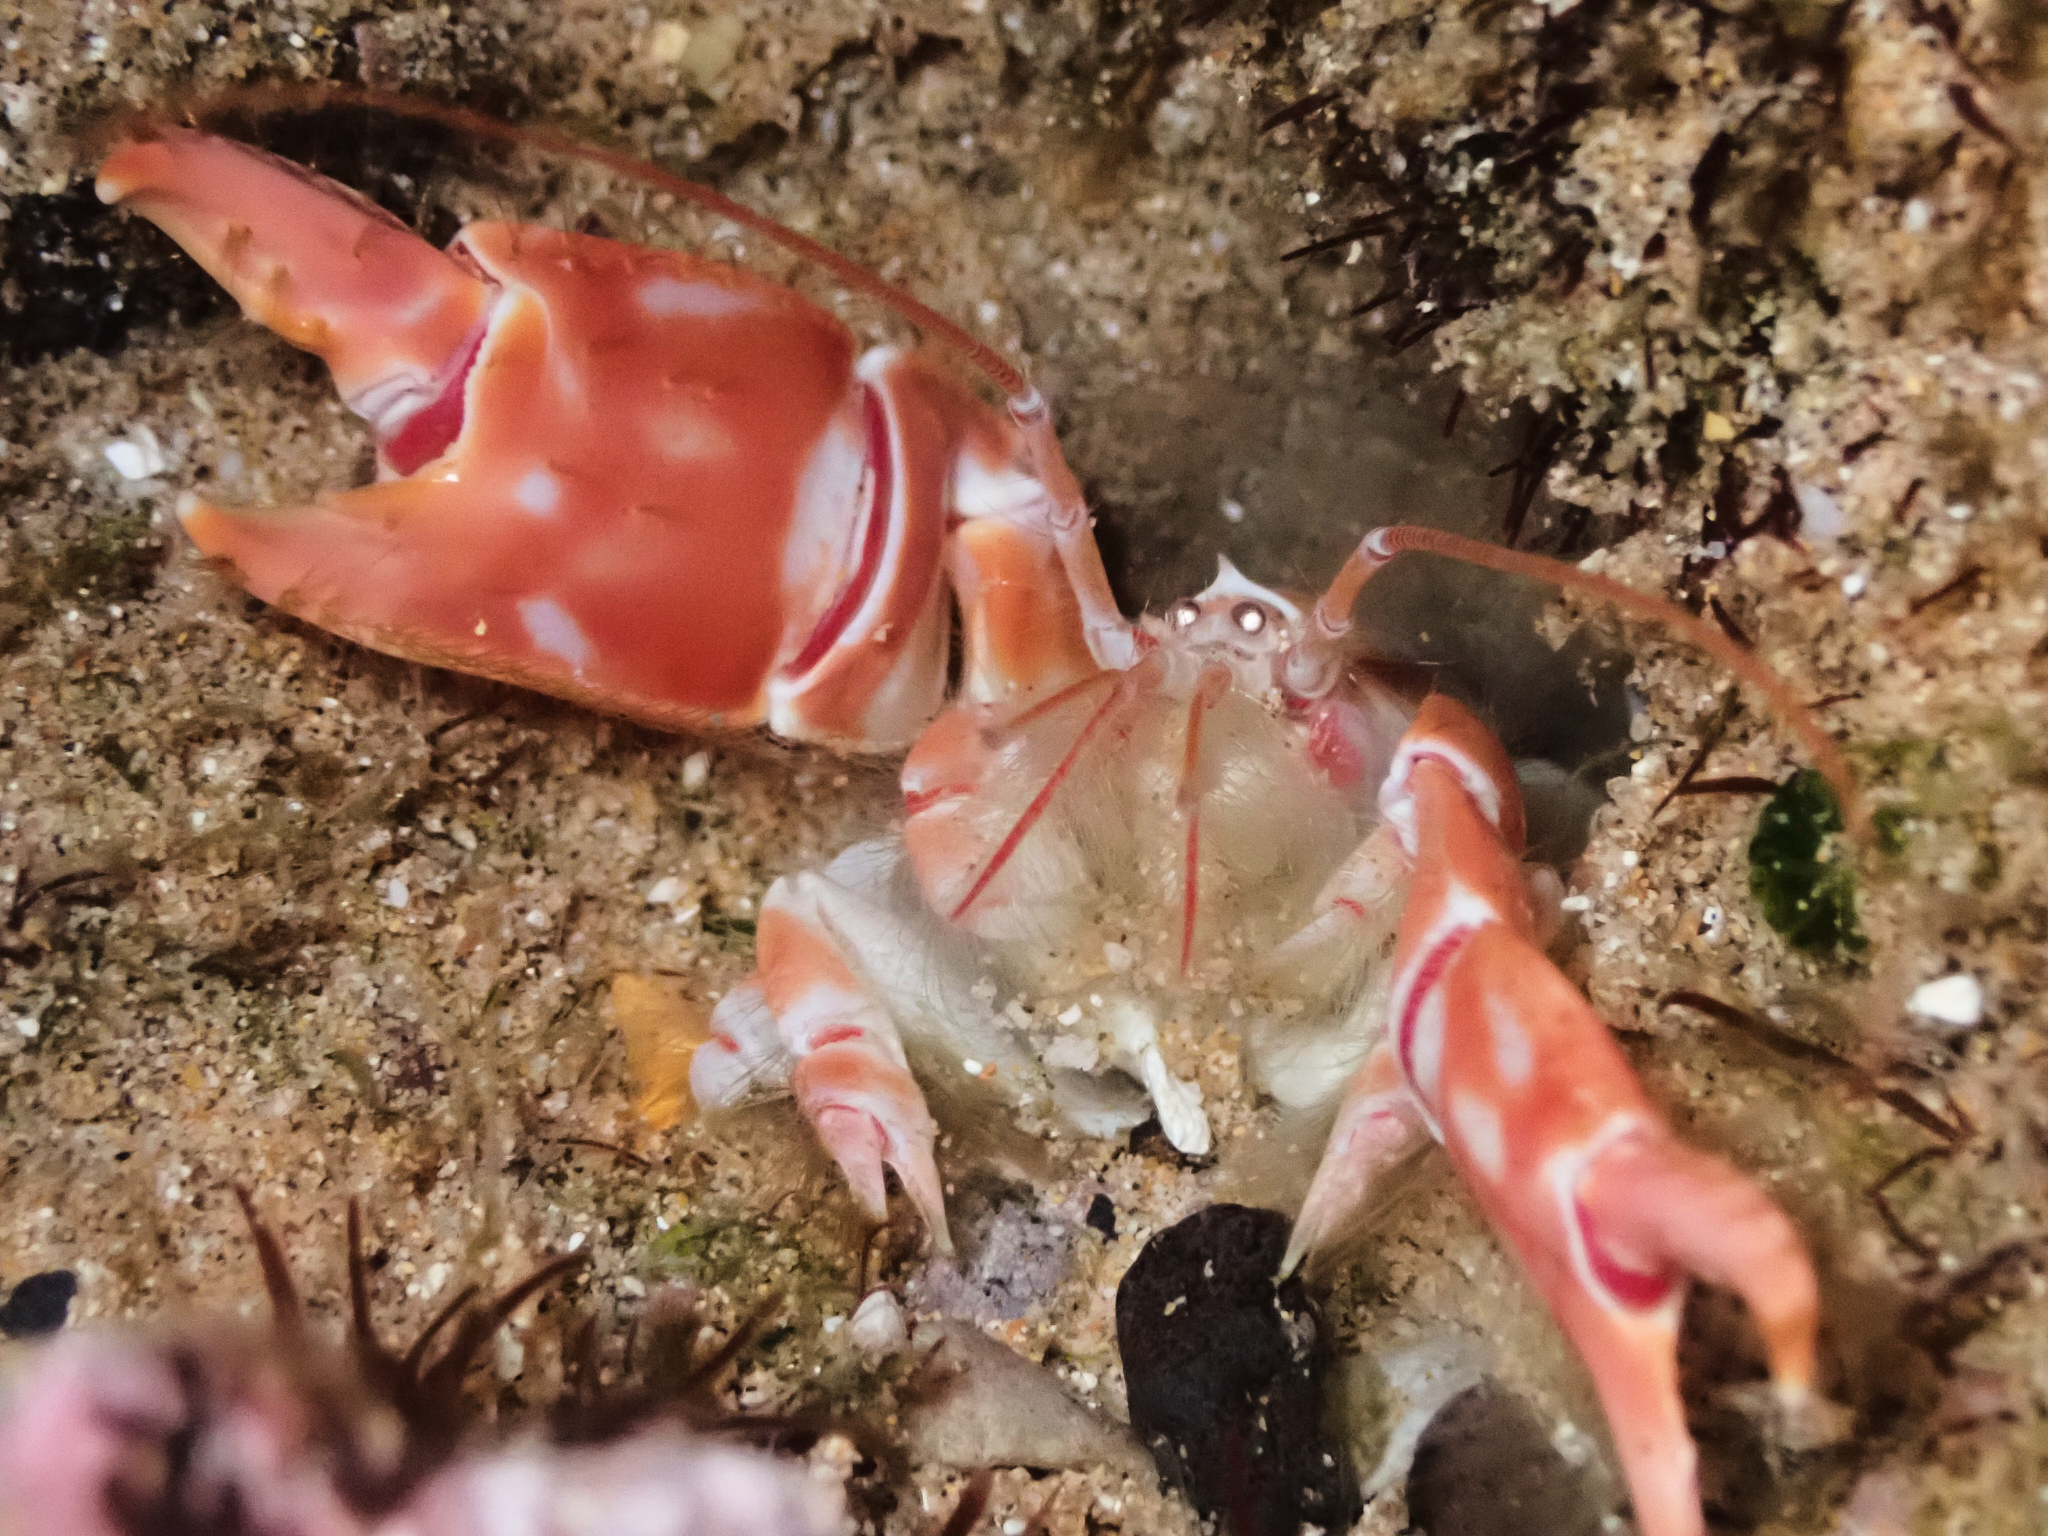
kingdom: Animalia
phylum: Arthropoda
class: Malacostraca
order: Decapoda
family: Callichiridae
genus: Corallianassa
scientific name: Corallianassa borradailei
